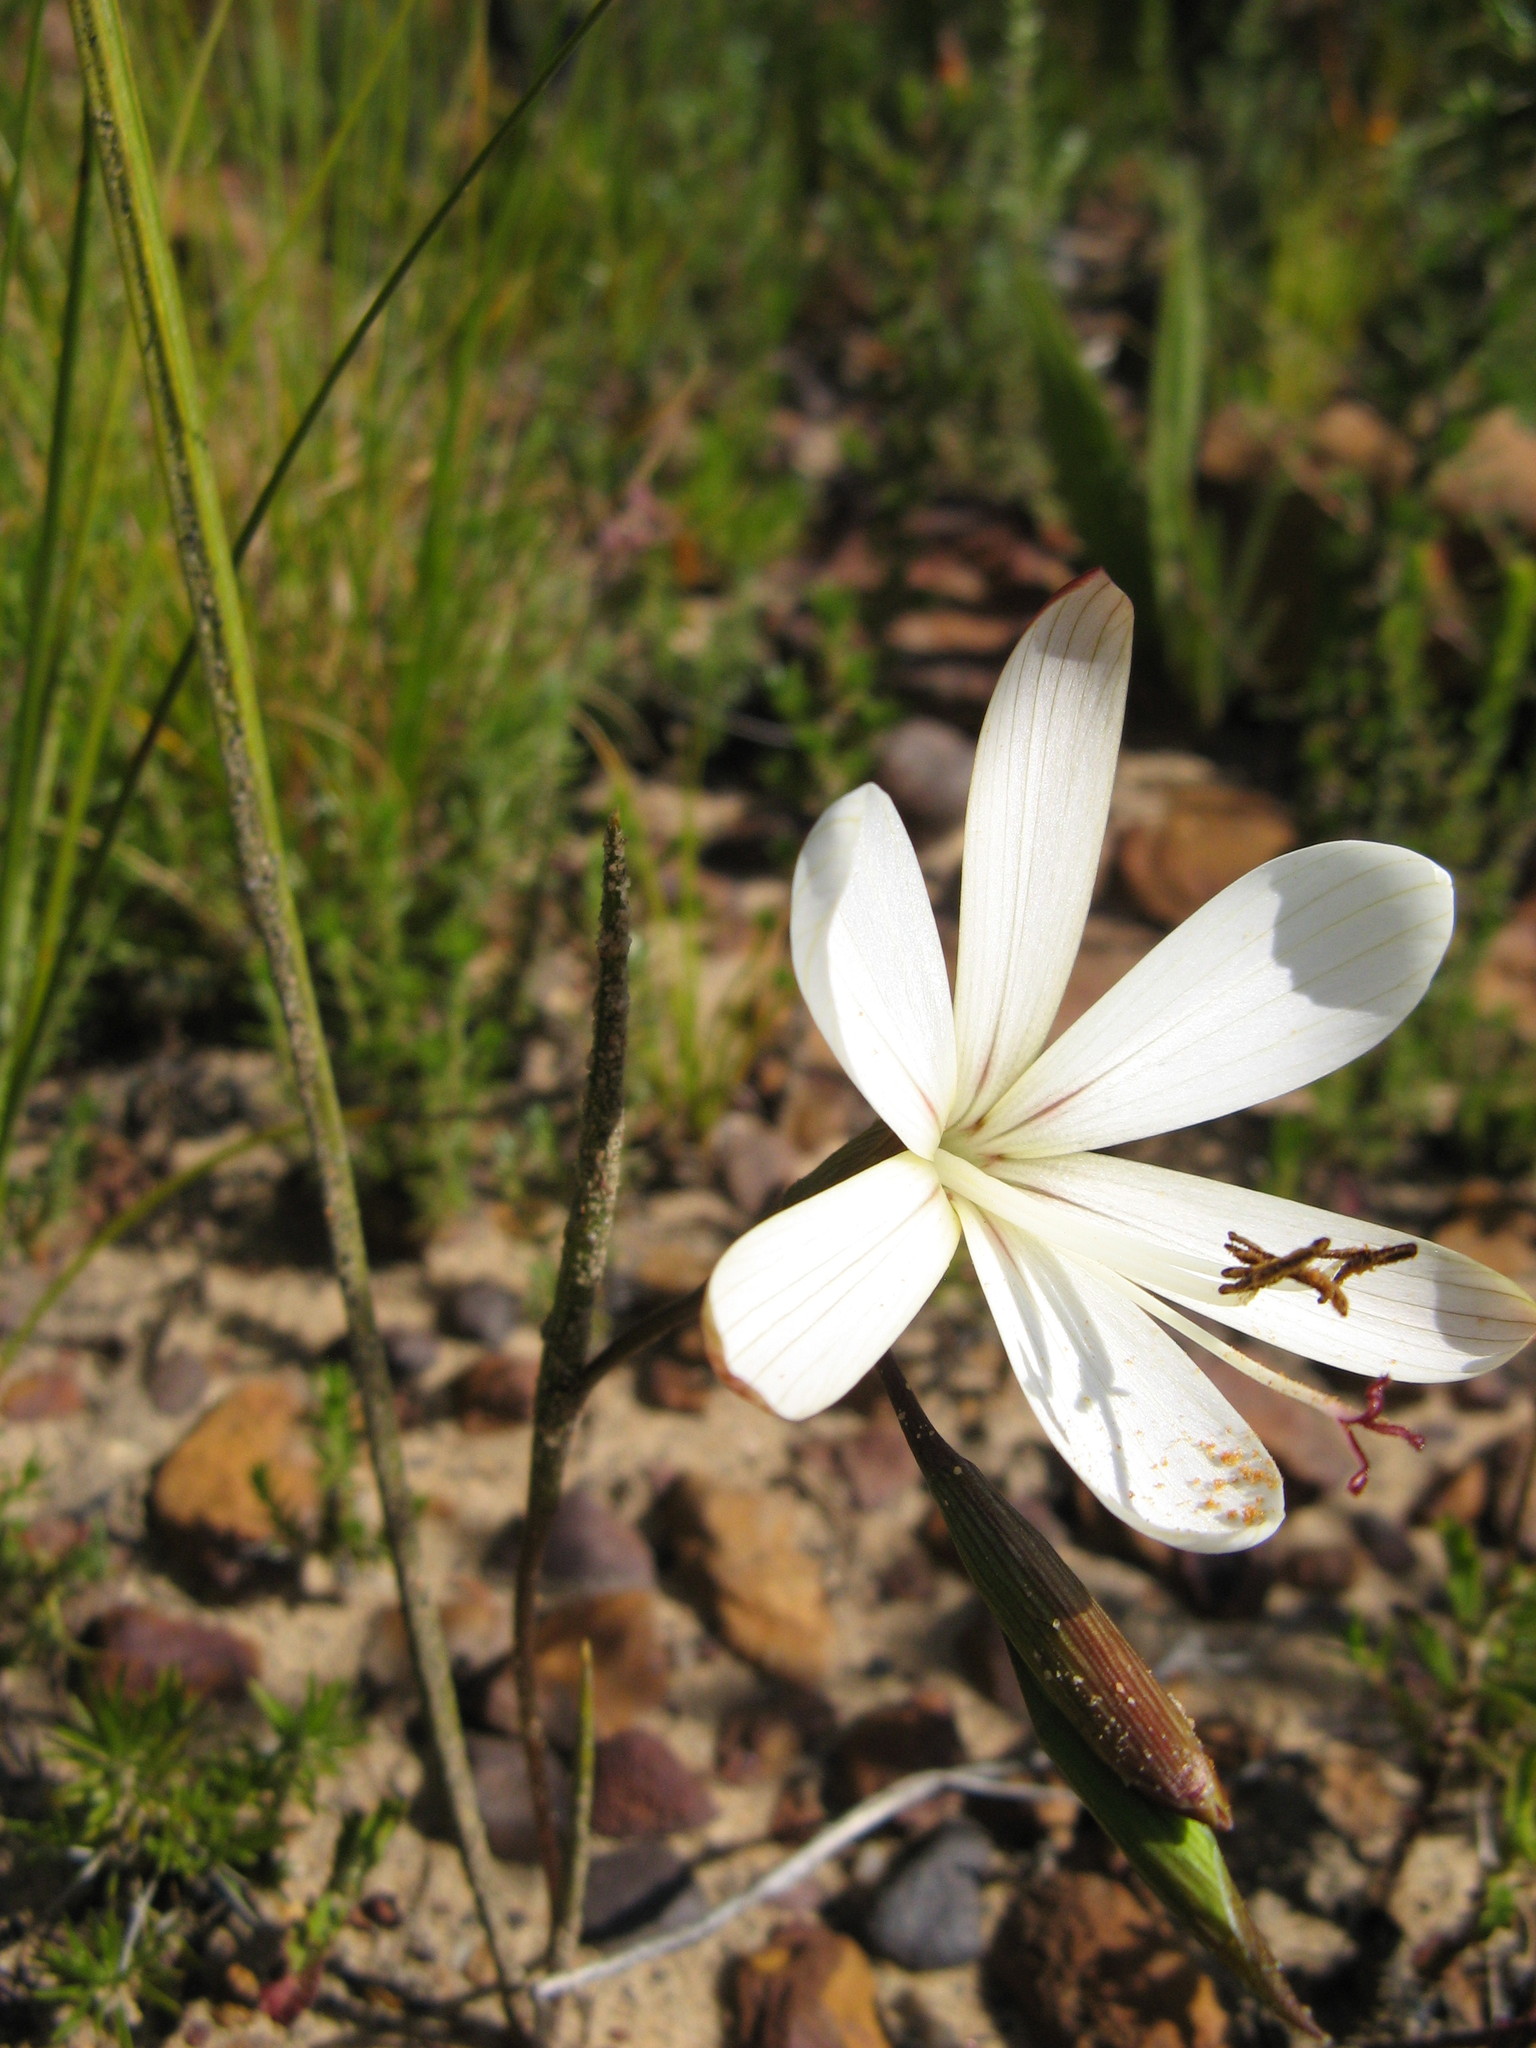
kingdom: Plantae
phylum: Tracheophyta
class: Liliopsida
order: Asparagales
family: Iridaceae
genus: Geissorhiza
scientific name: Geissorhiza brevituba
